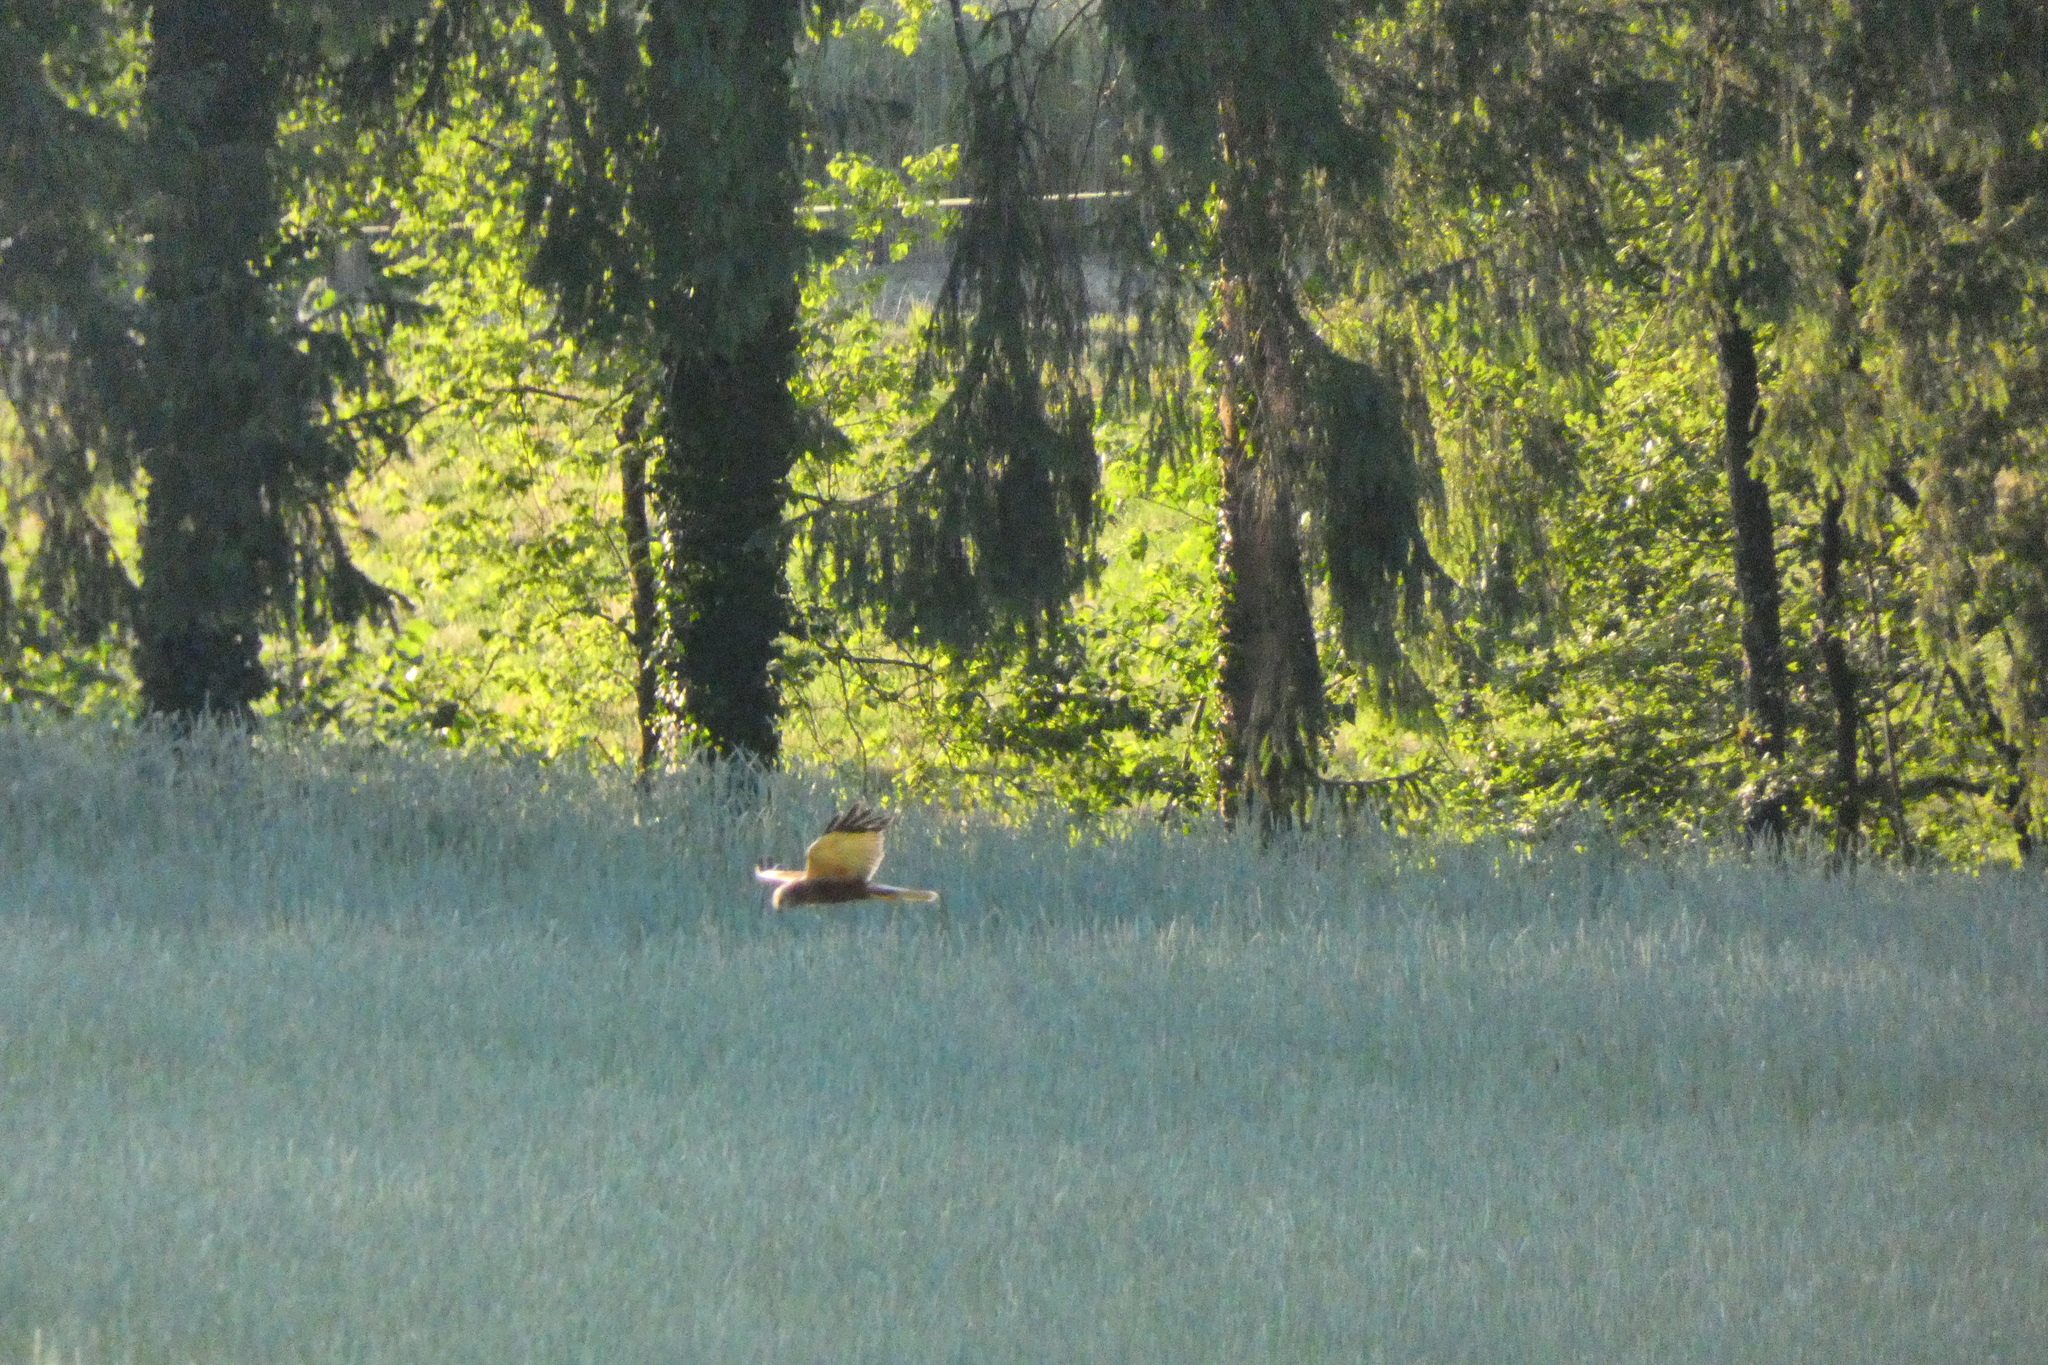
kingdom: Animalia
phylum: Chordata
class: Aves
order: Accipitriformes
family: Accipitridae
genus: Circus
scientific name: Circus aeruginosus
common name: Western marsh harrier
